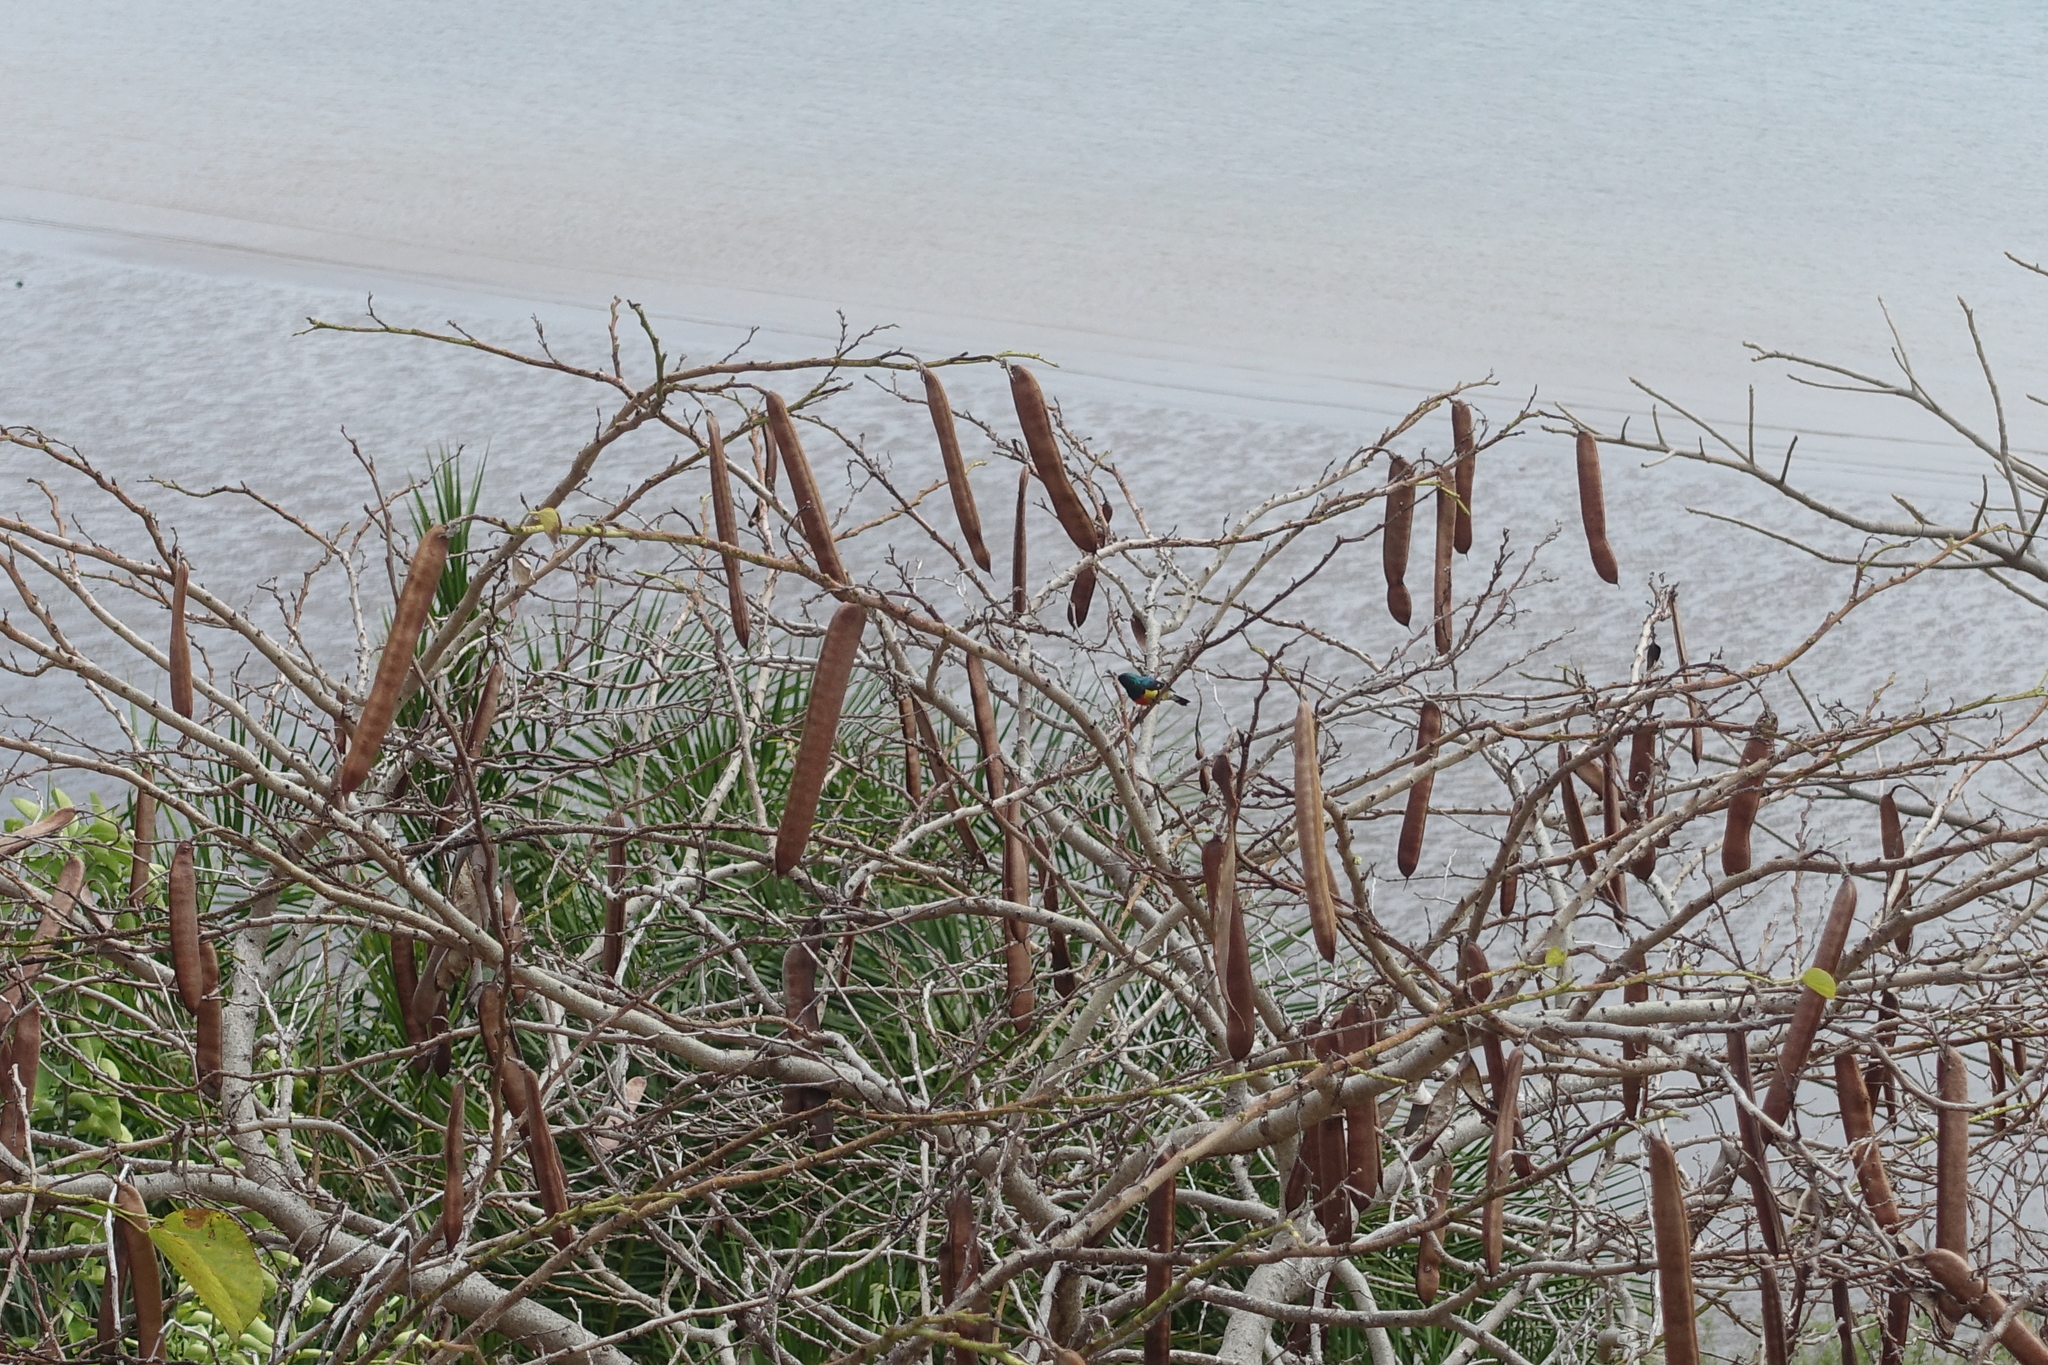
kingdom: Animalia
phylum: Chordata
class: Aves
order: Passeriformes
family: Nectariniidae
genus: Cinnyris
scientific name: Cinnyris coquerellii
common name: Mayotte sunbird
